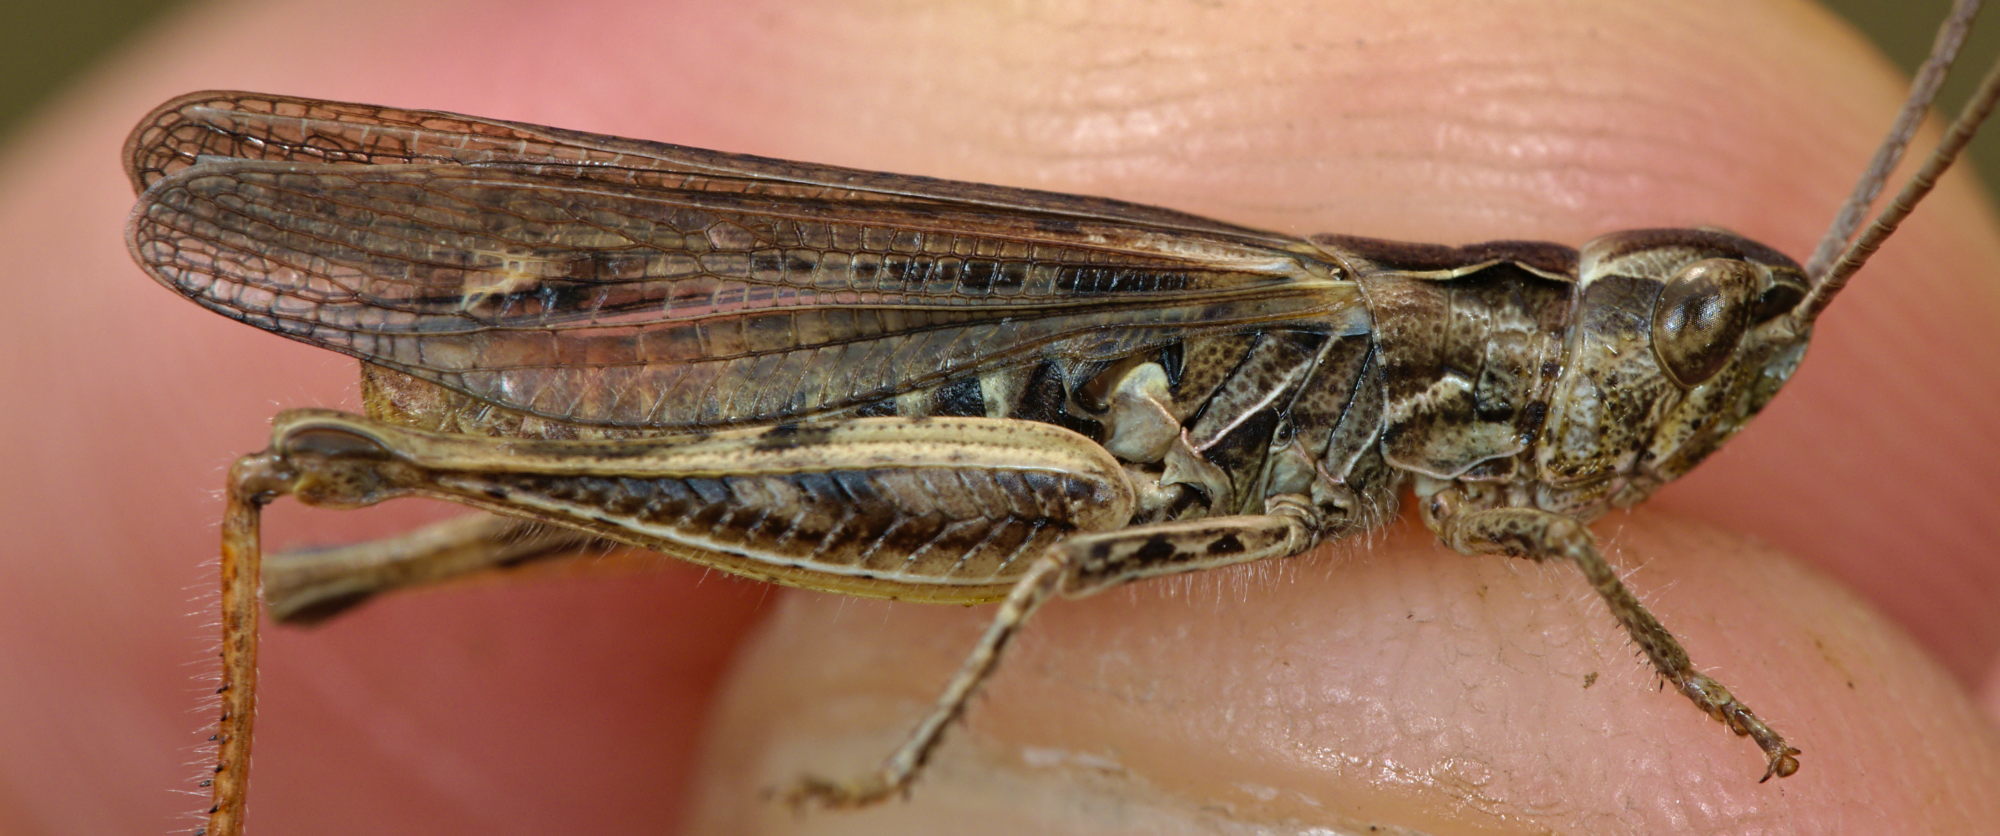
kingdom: Animalia
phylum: Arthropoda
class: Insecta
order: Orthoptera
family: Acrididae
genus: Chorthippus
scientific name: Chorthippus biguttulus
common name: Bow-winged grasshopper
